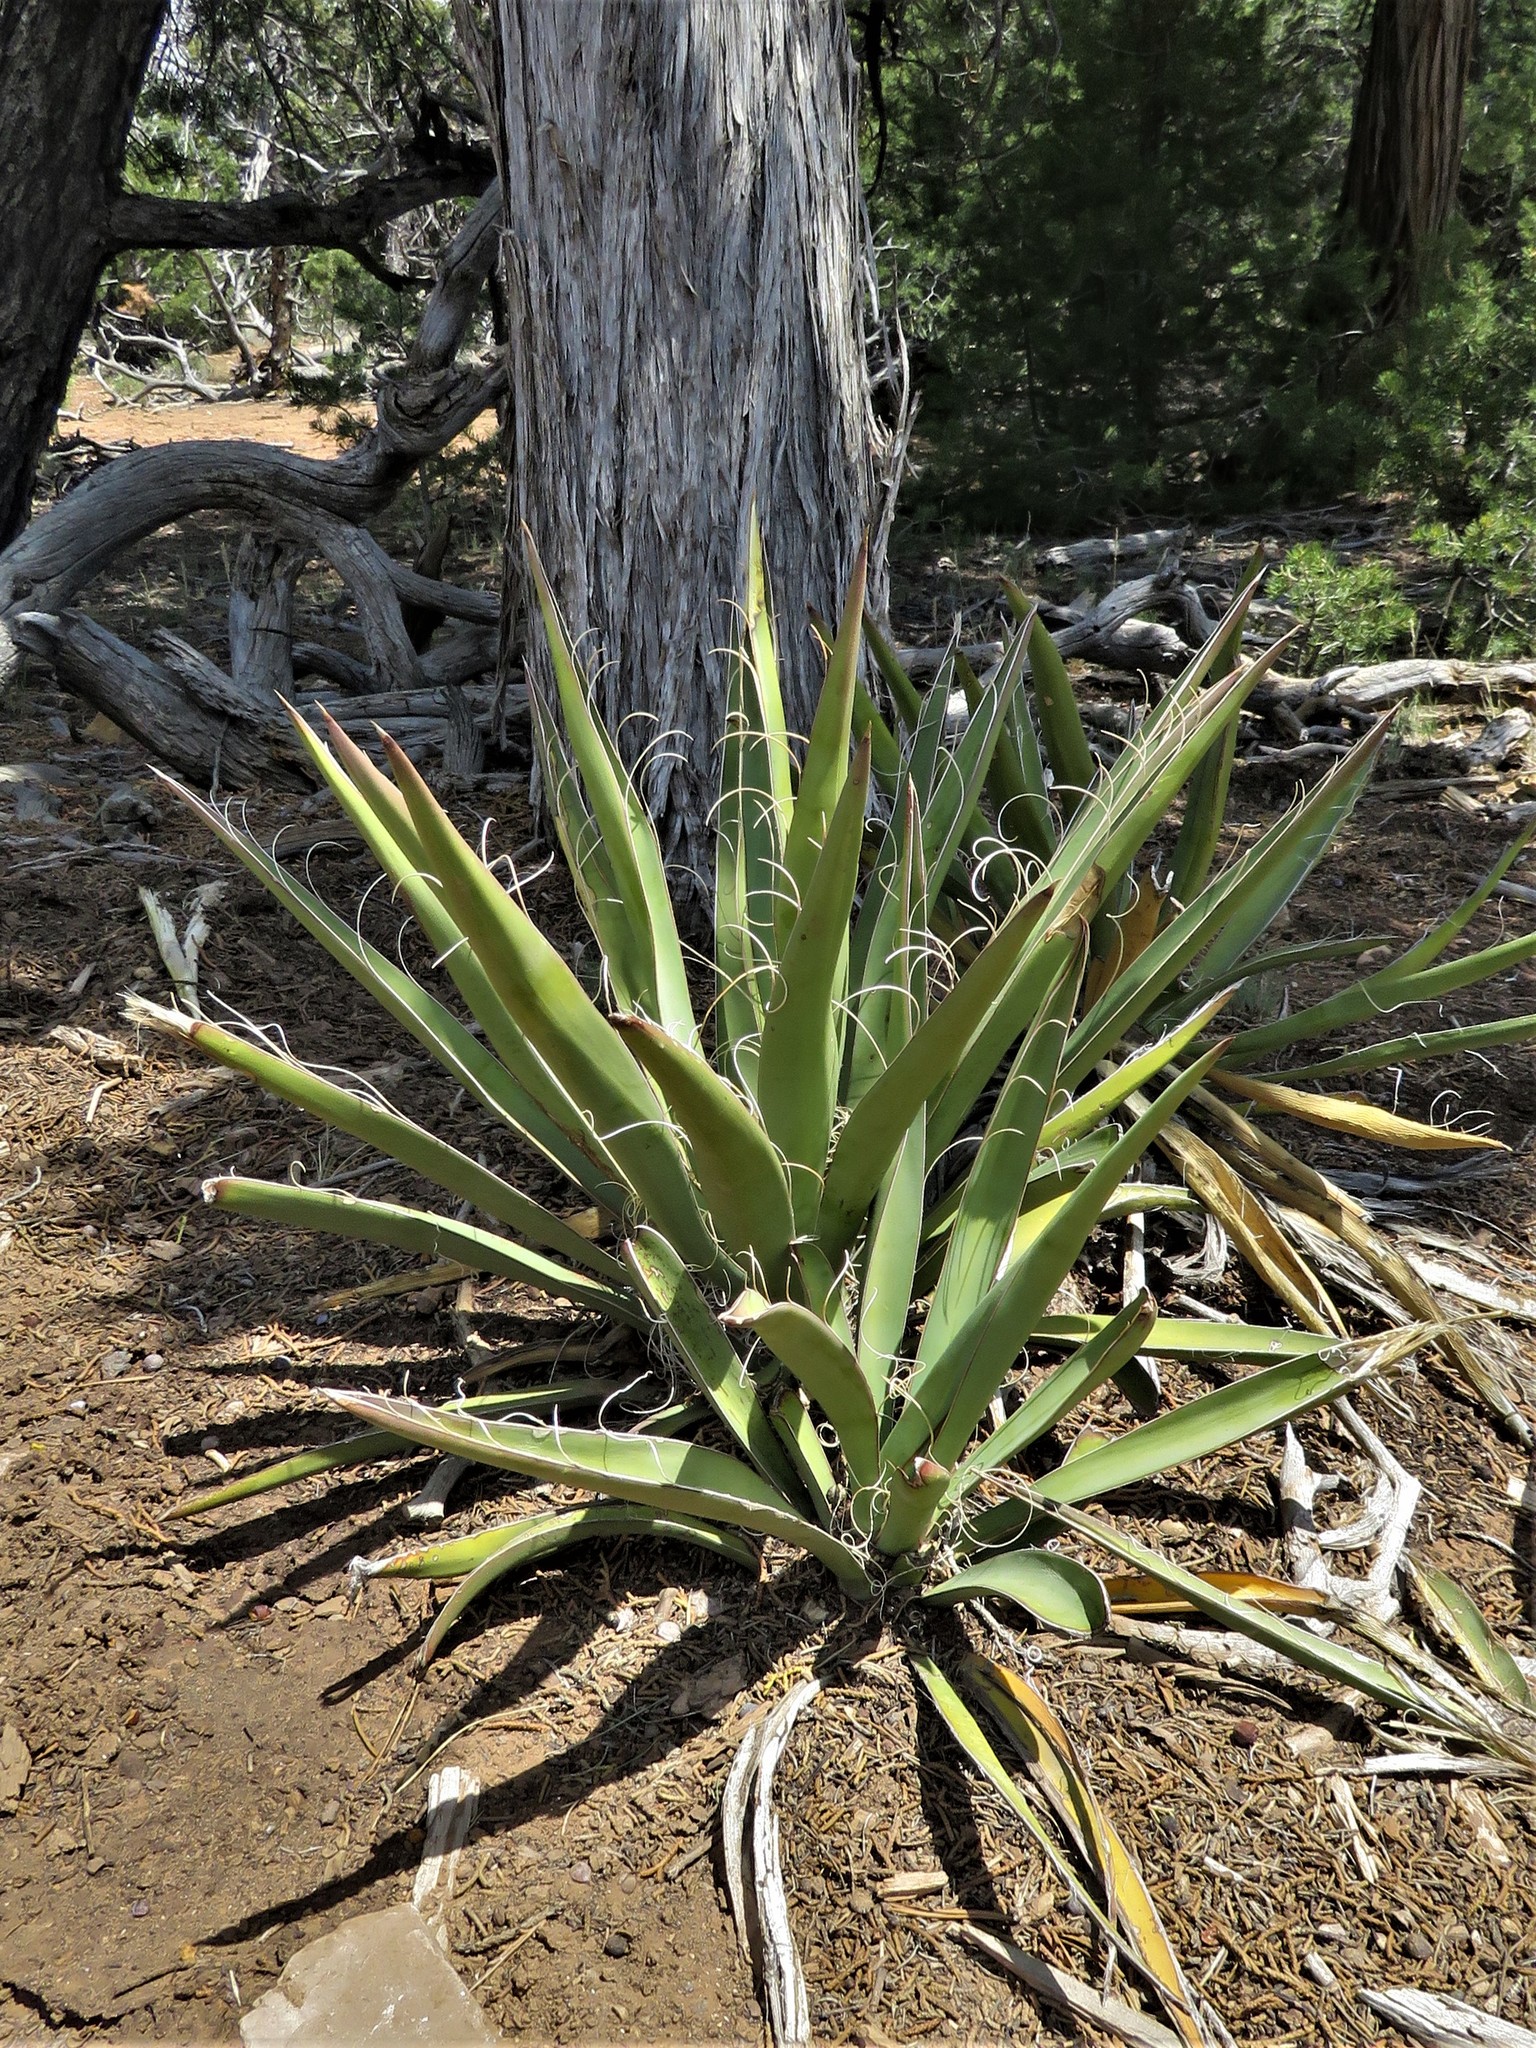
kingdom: Plantae
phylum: Tracheophyta
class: Liliopsida
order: Asparagales
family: Asparagaceae
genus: Yucca
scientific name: Yucca baccata
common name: Banana yucca
